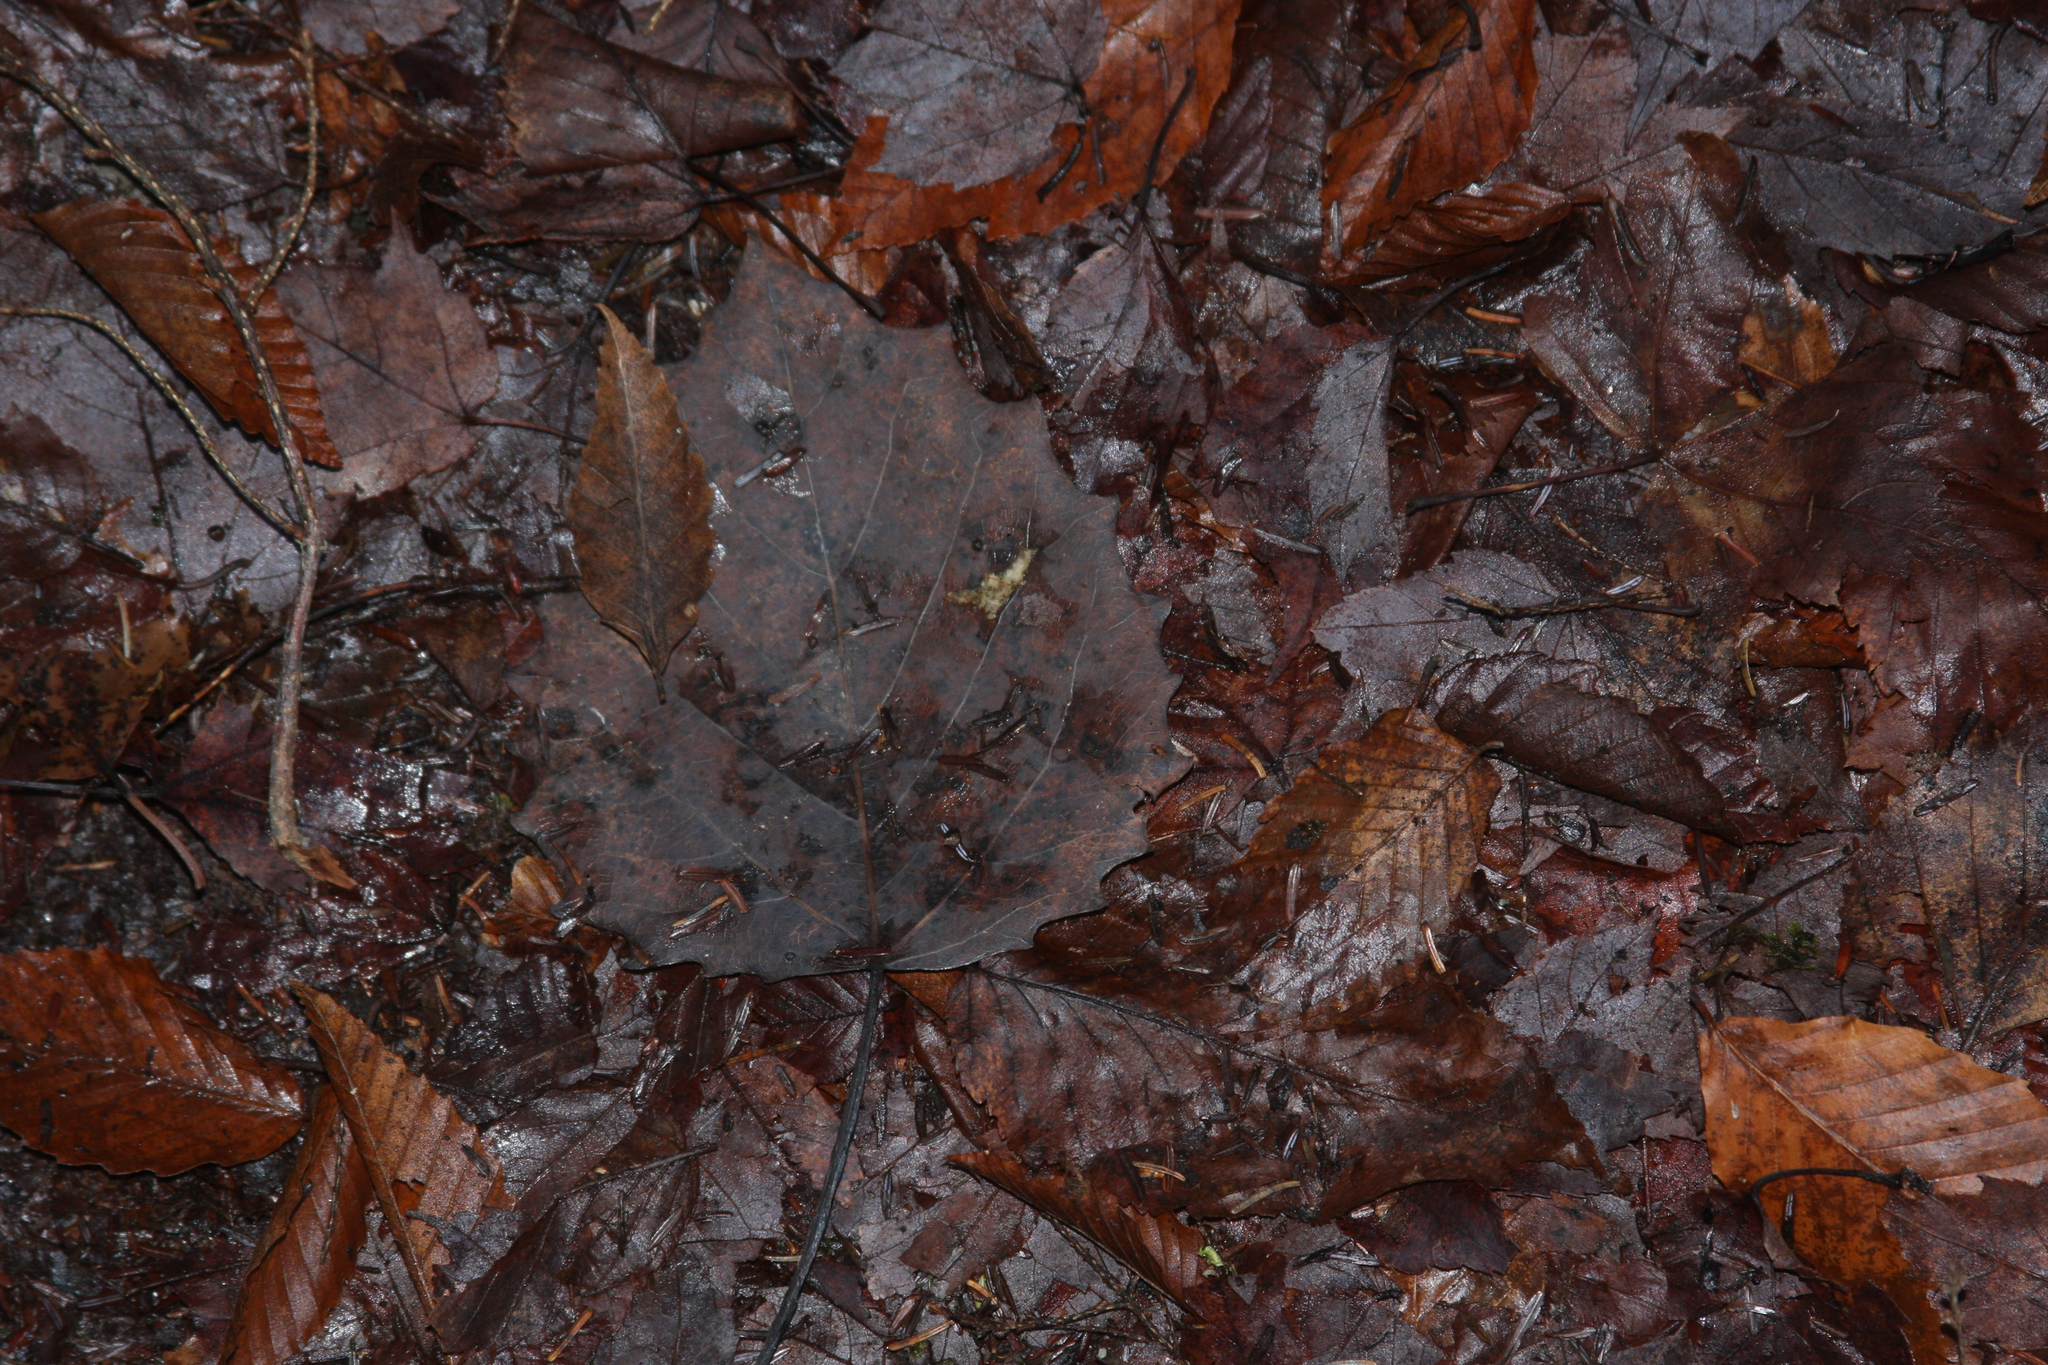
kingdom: Plantae
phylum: Tracheophyta
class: Magnoliopsida
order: Malpighiales
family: Salicaceae
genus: Populus
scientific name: Populus grandidentata
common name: Bigtooth aspen
